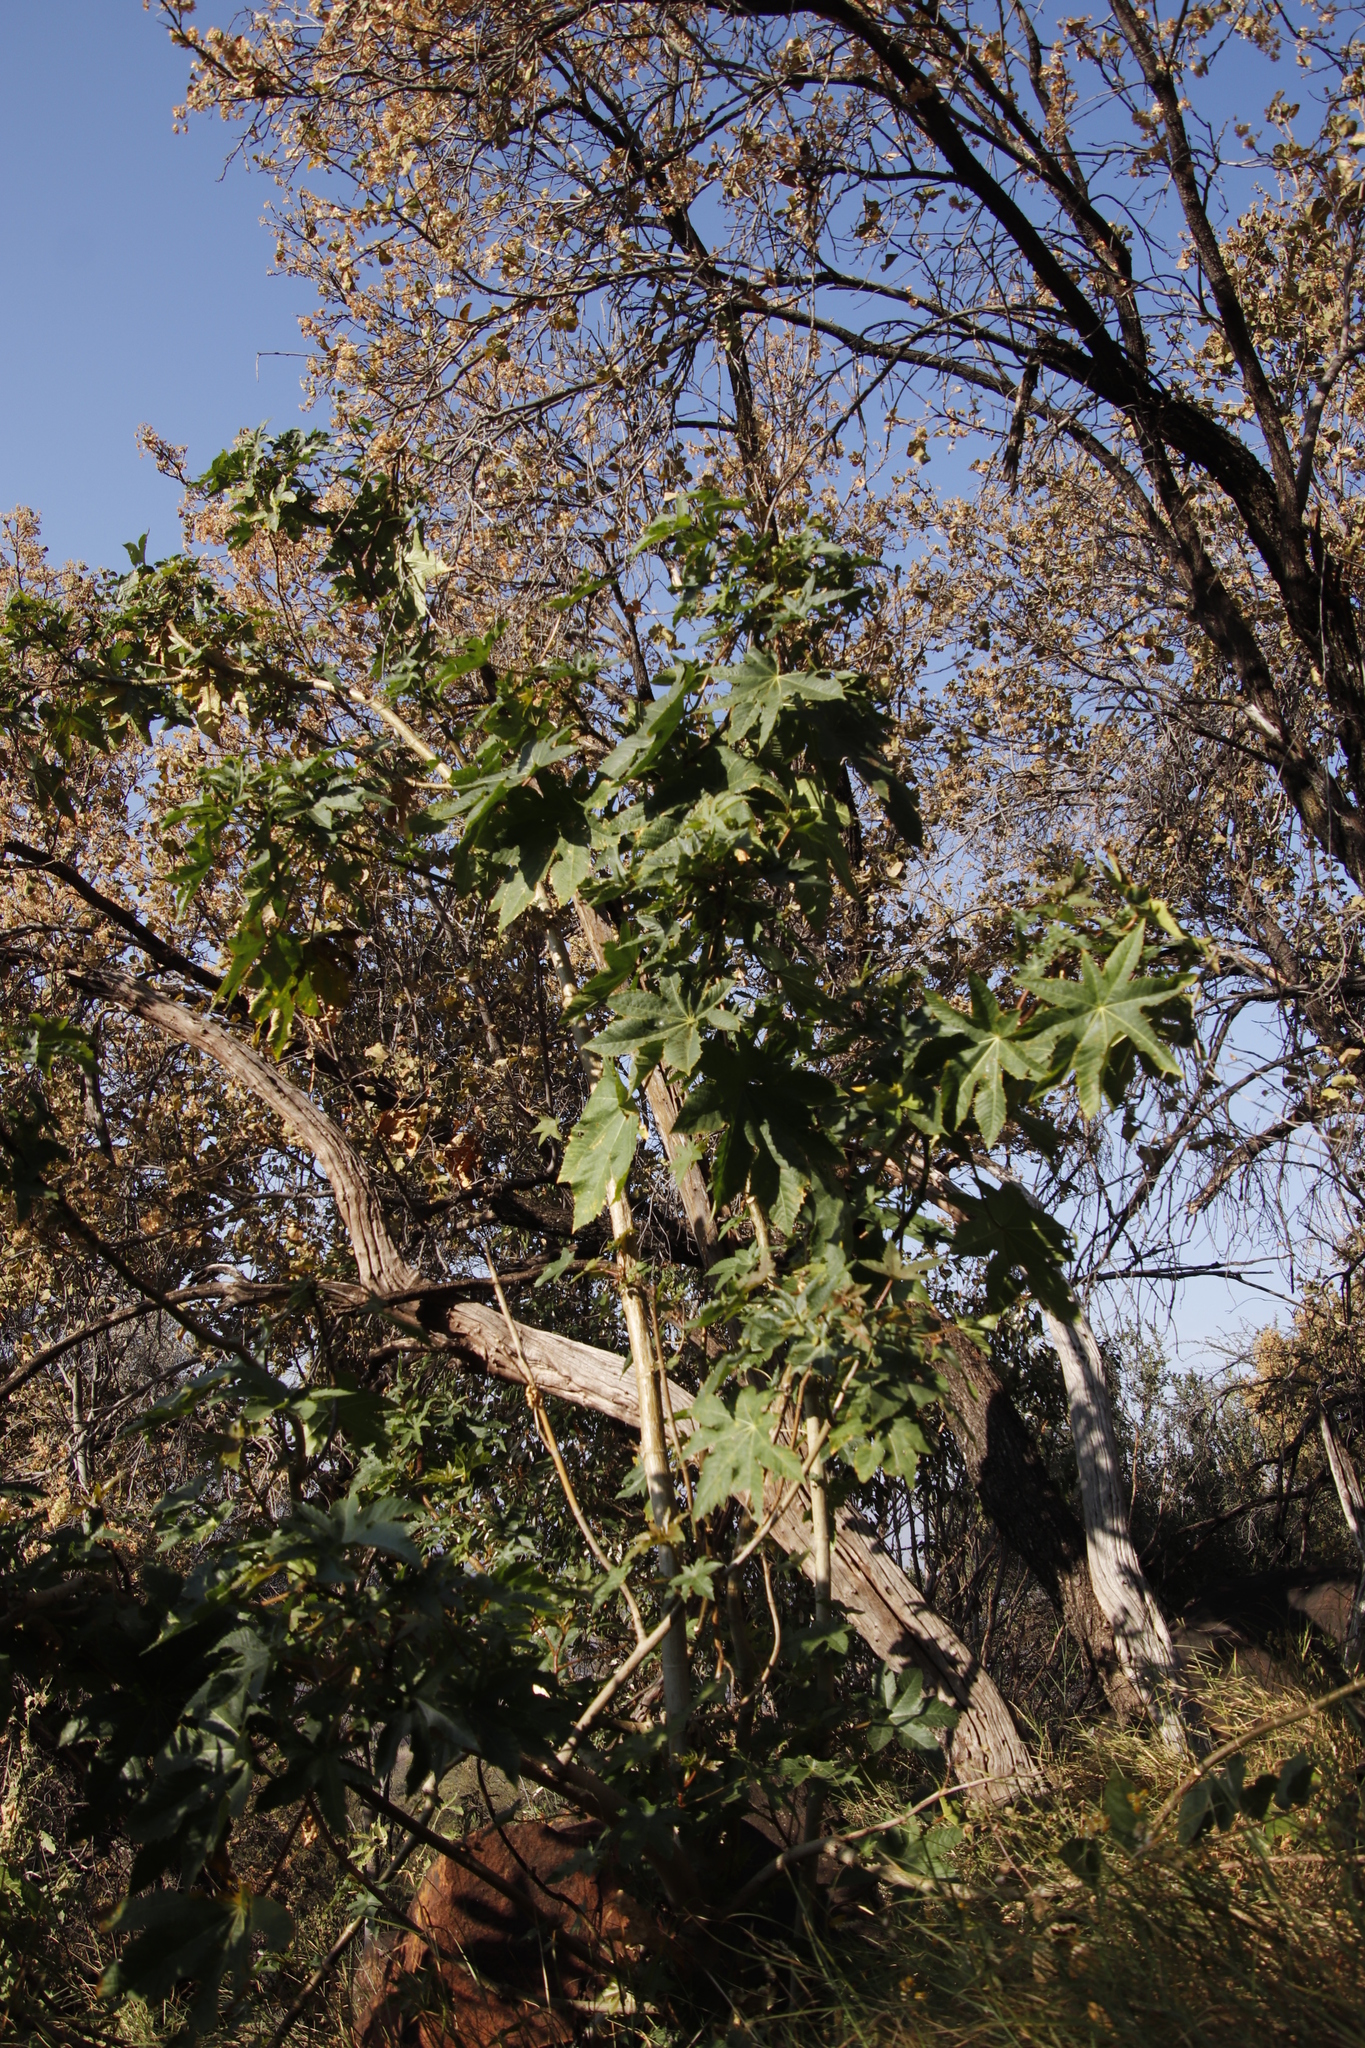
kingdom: Plantae
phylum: Tracheophyta
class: Magnoliopsida
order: Malpighiales
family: Euphorbiaceae
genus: Ricinus
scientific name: Ricinus communis
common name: Castor-oil-plant
